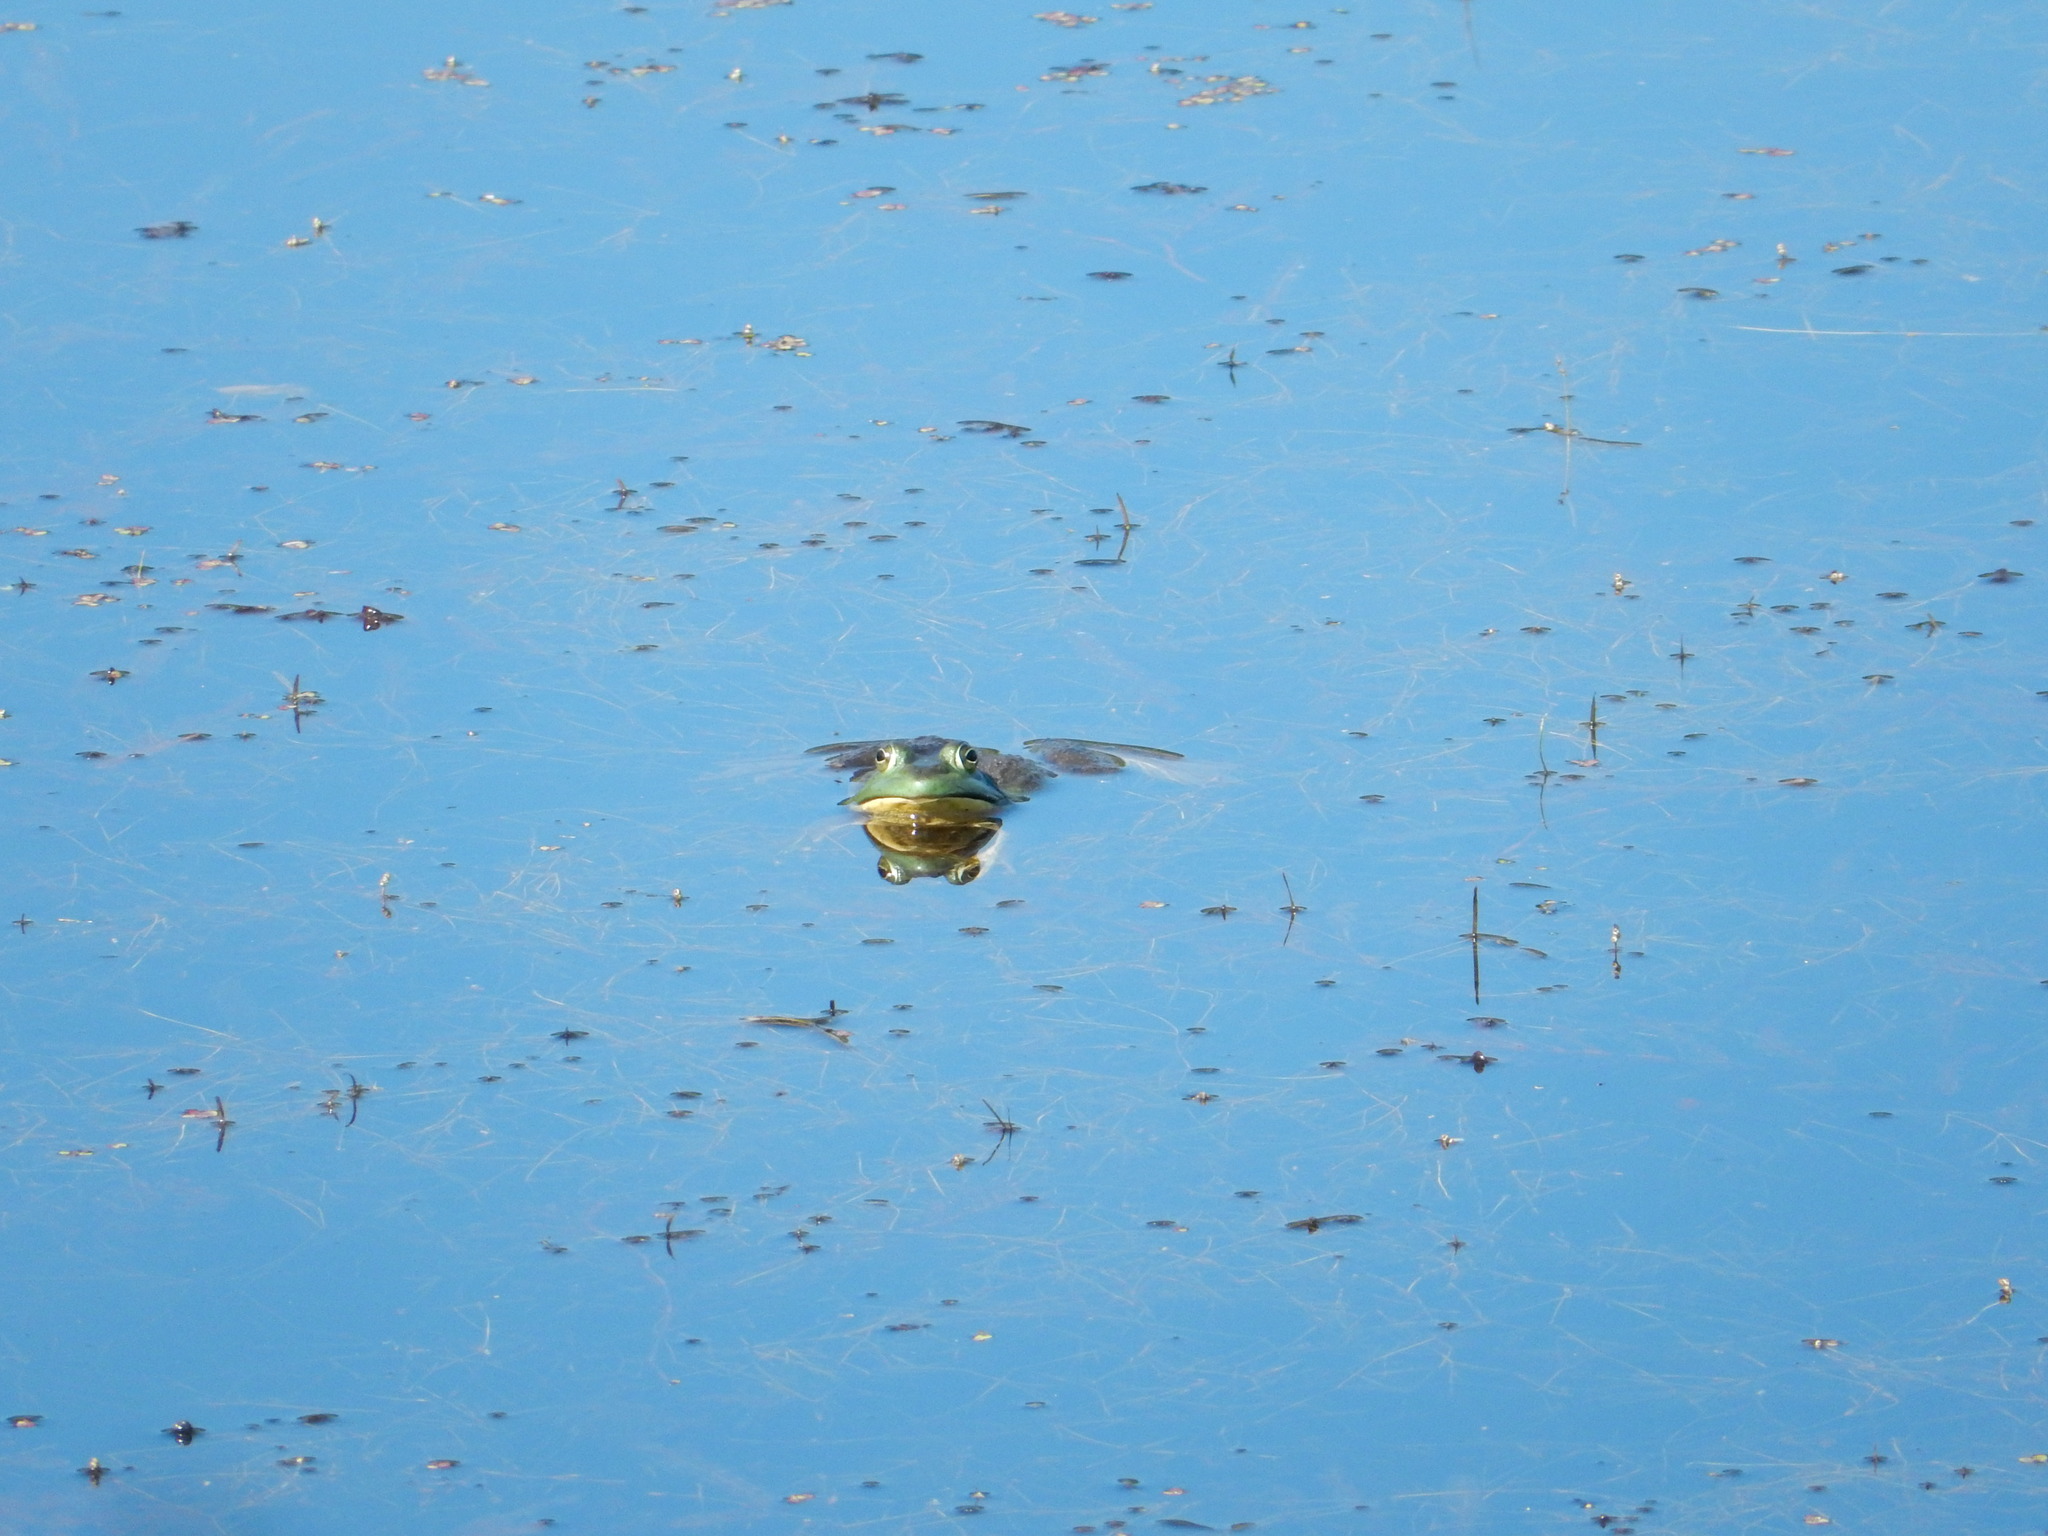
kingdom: Animalia
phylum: Chordata
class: Amphibia
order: Anura
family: Ranidae
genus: Lithobates
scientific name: Lithobates catesbeianus
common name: American bullfrog
